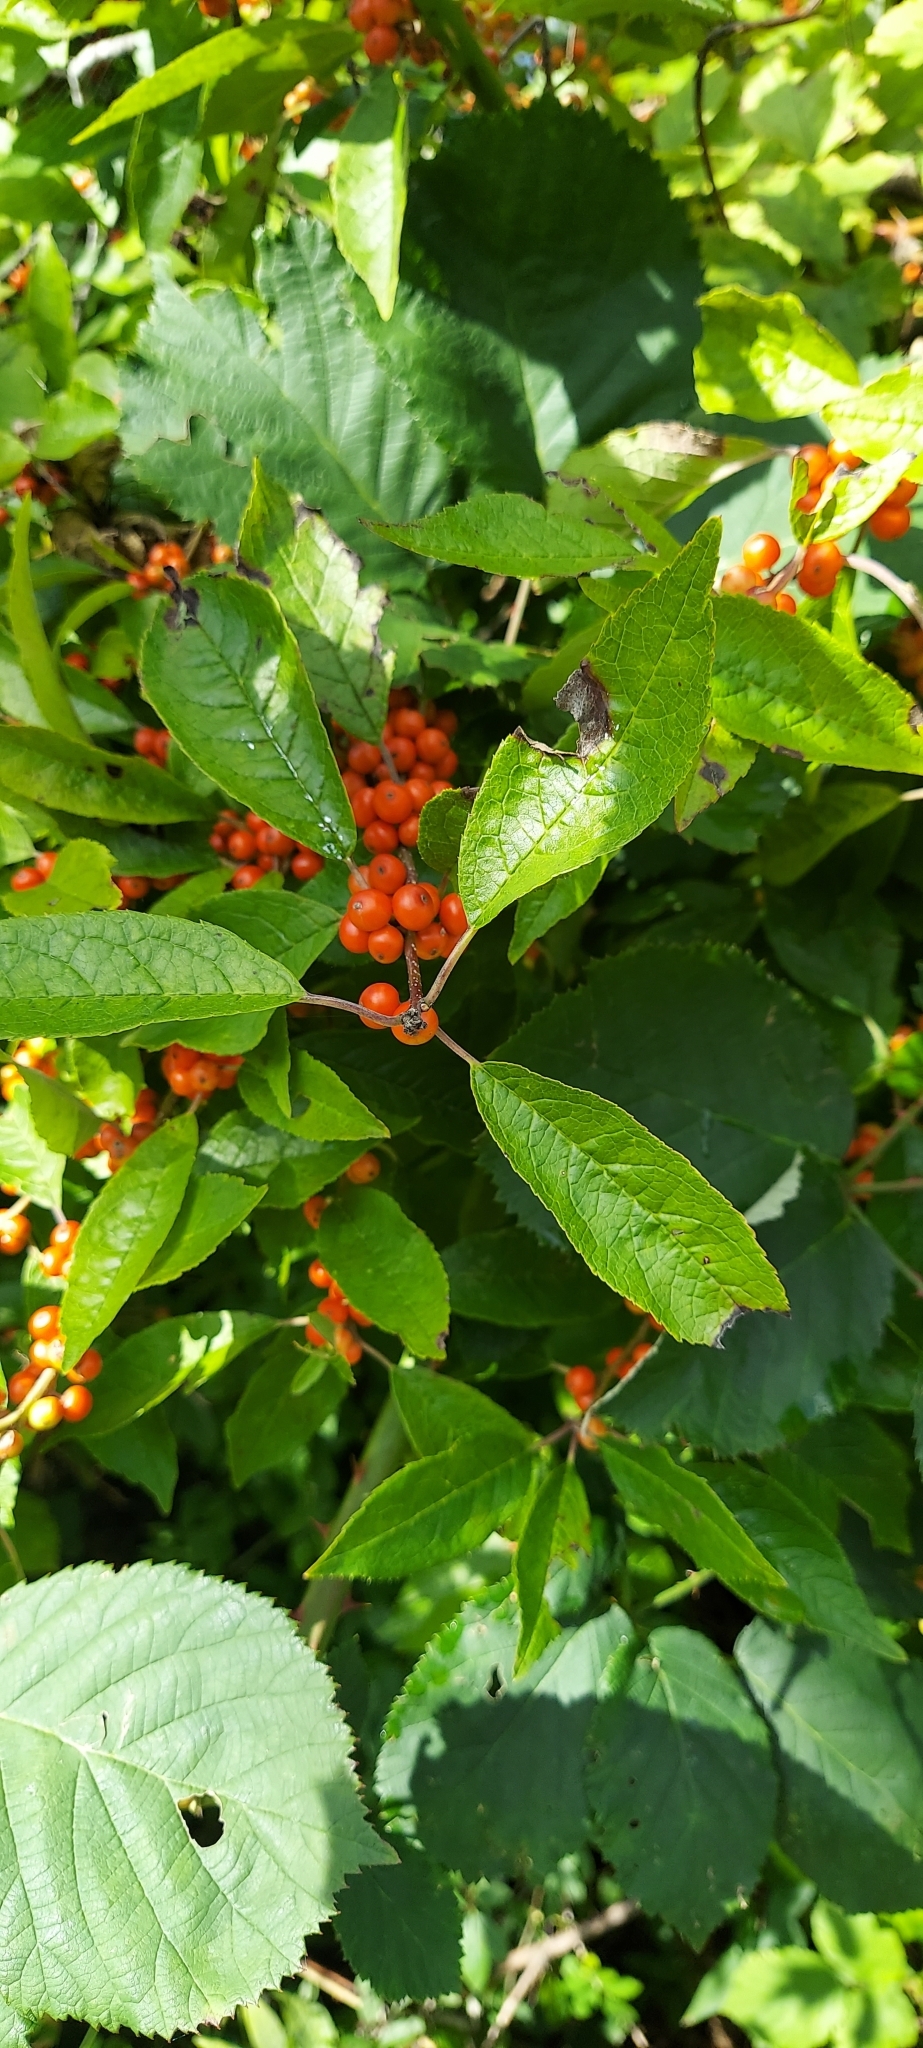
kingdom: Plantae
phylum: Tracheophyta
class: Magnoliopsida
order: Aquifoliales
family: Aquifoliaceae
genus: Ilex
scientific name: Ilex verticillata
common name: Virginia winterberry
